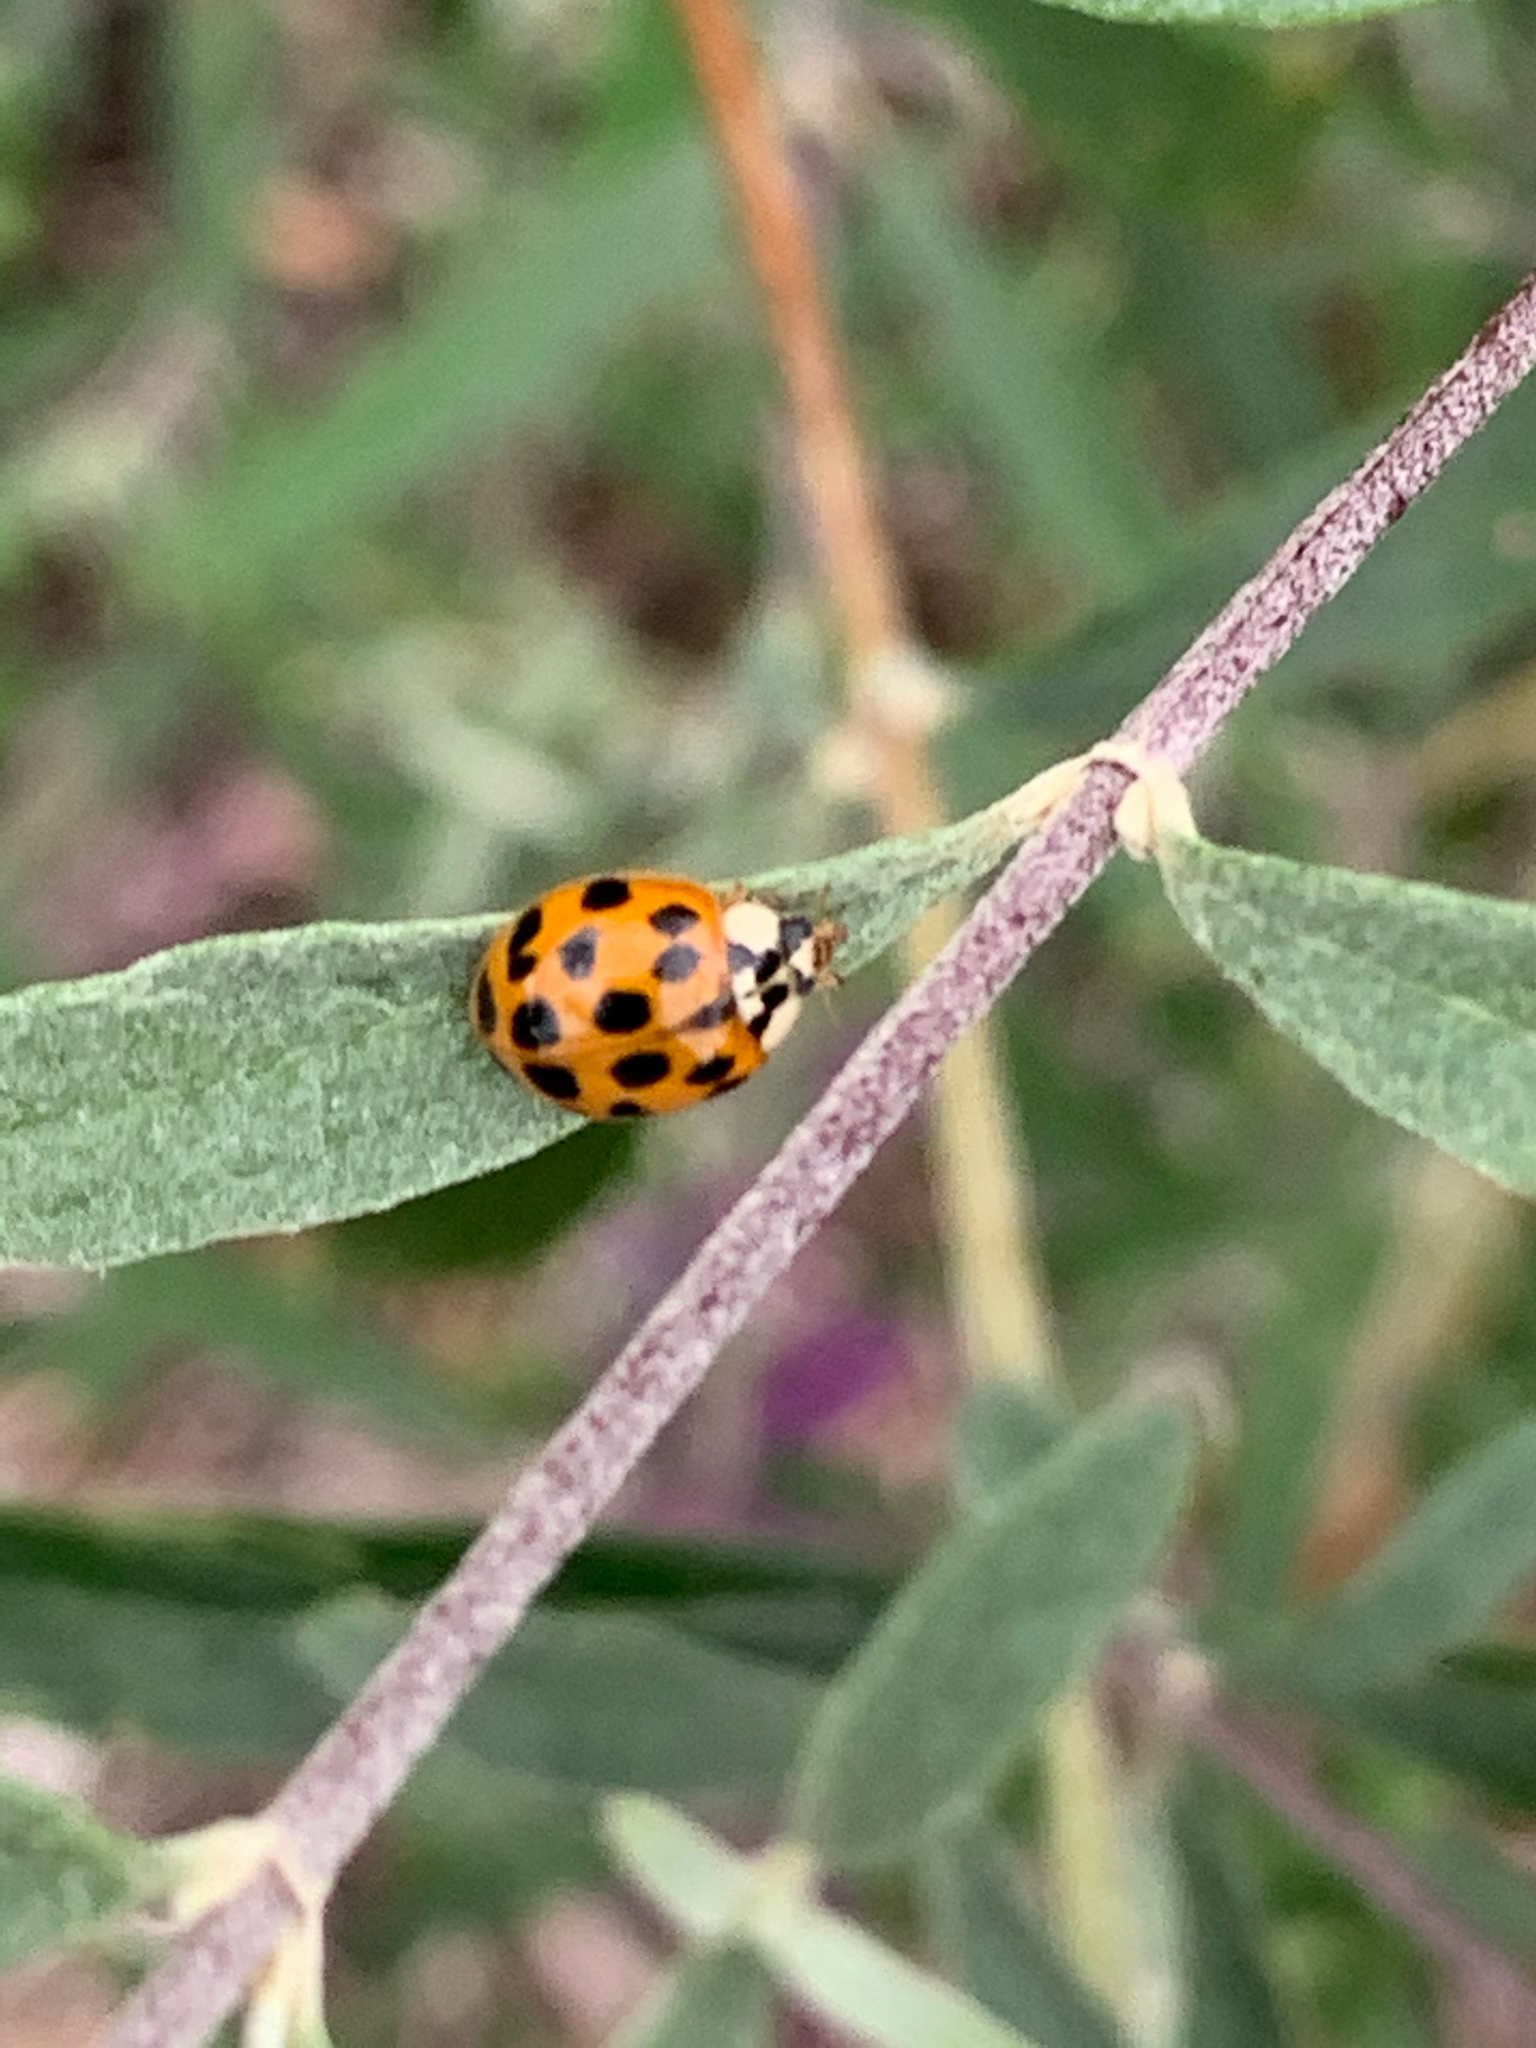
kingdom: Animalia
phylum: Arthropoda
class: Insecta
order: Coleoptera
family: Coccinellidae
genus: Harmonia
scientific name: Harmonia axyridis
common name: Harlequin ladybird
